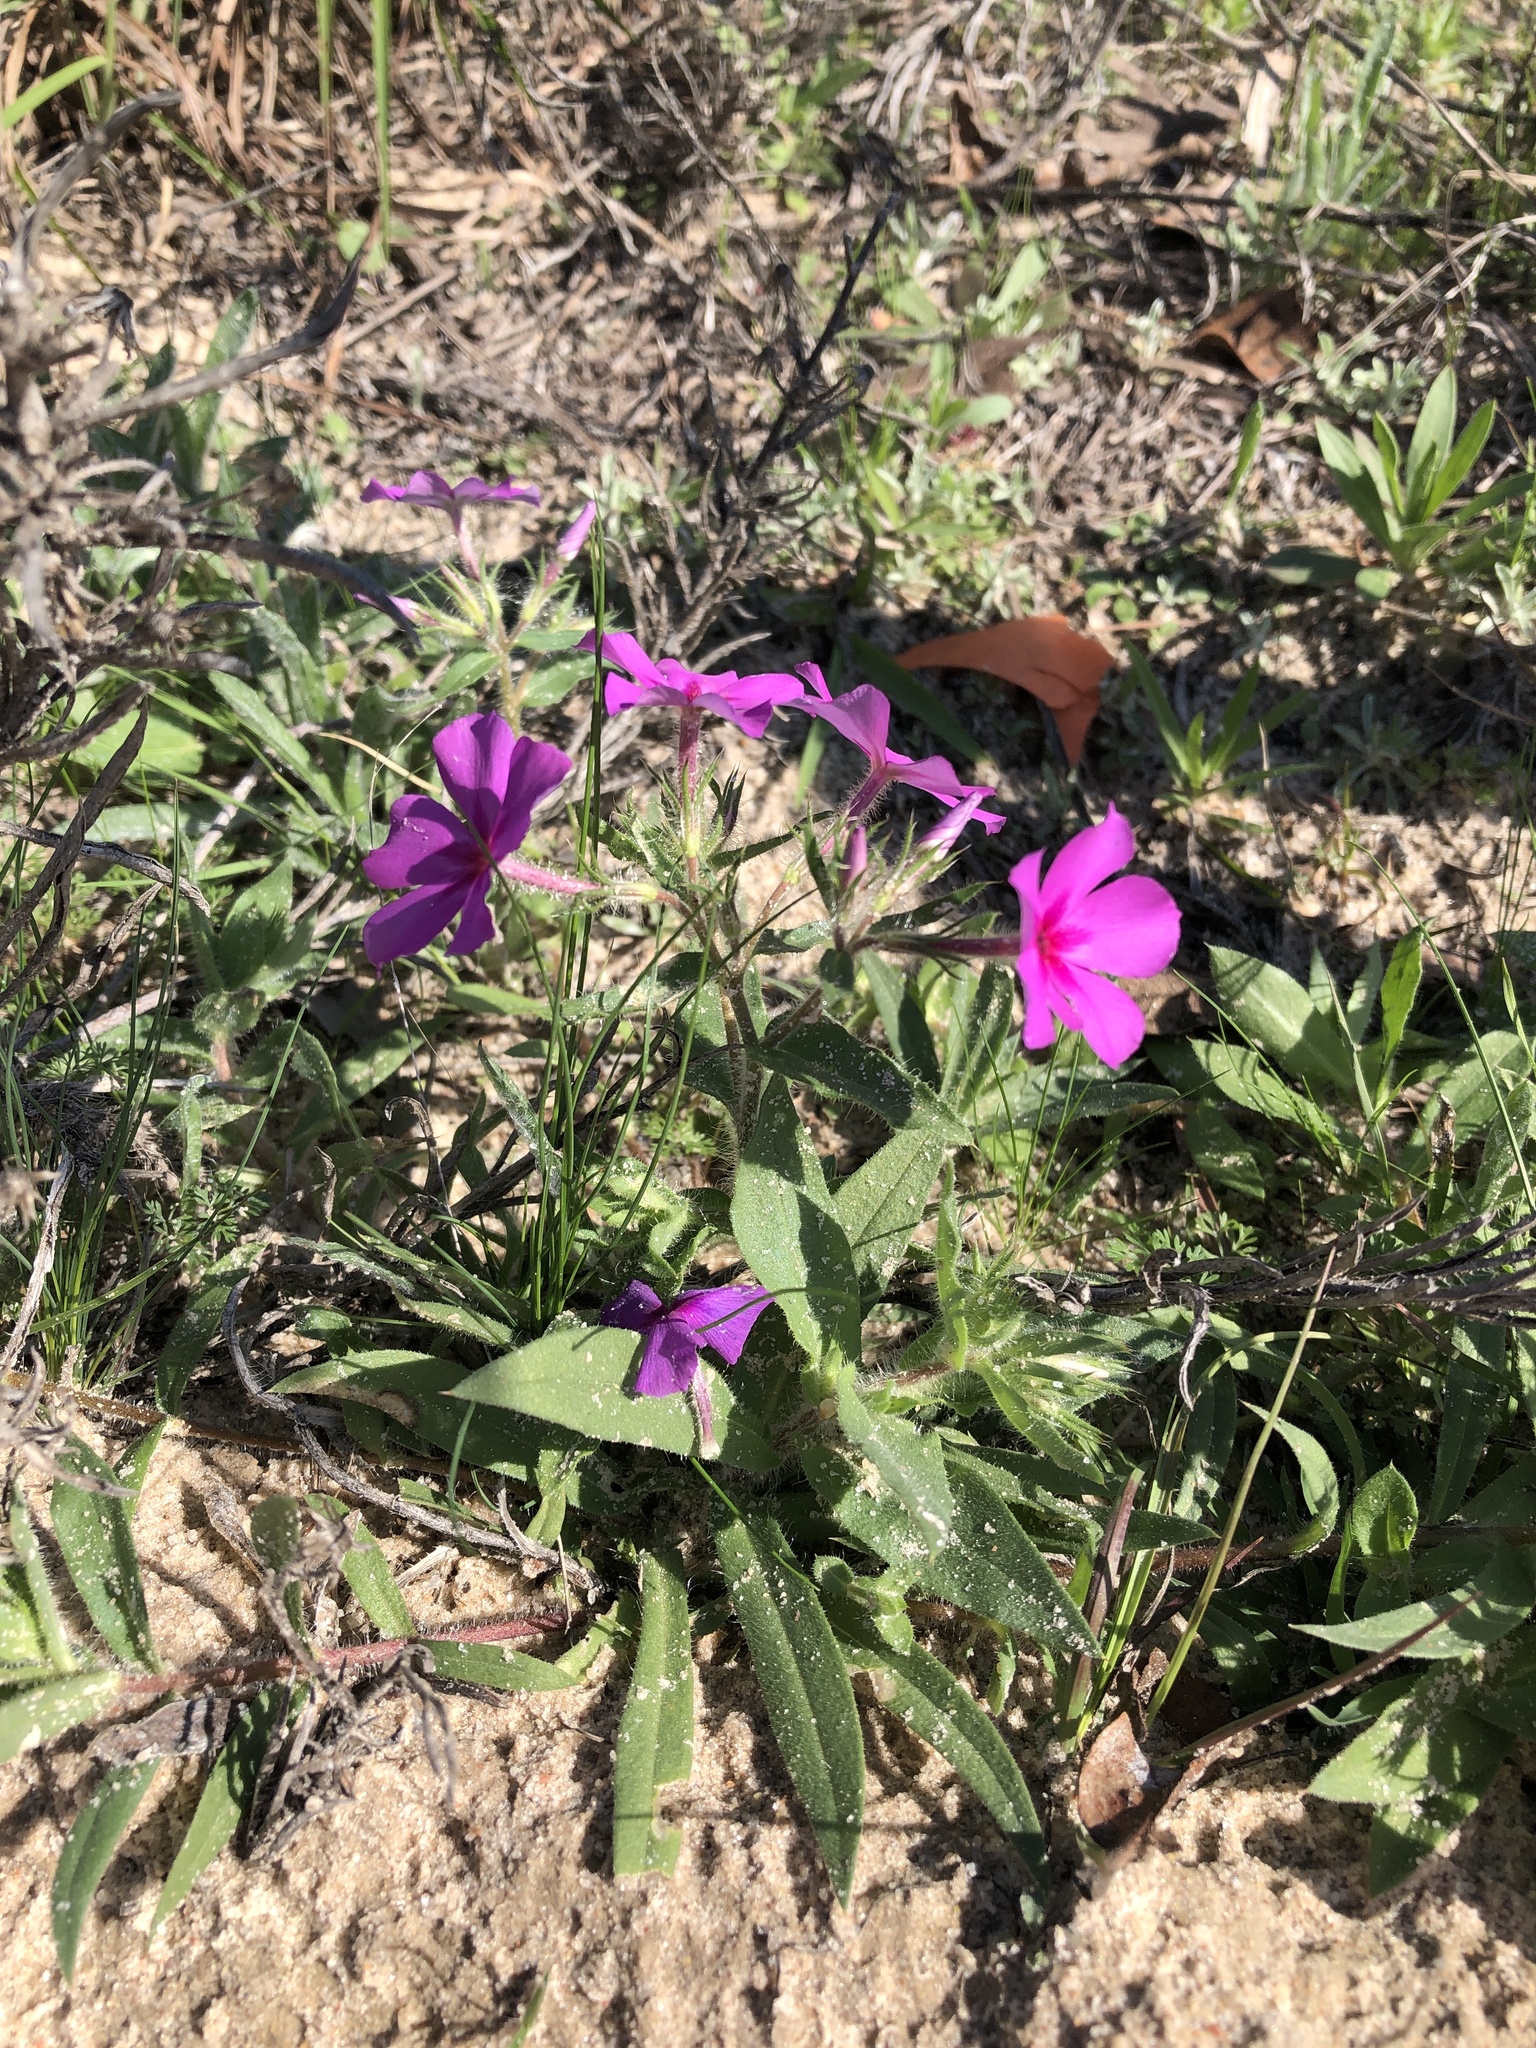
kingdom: Plantae
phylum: Tracheophyta
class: Magnoliopsida
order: Ericales
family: Polemoniaceae
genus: Phlox
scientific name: Phlox drummondii
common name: Drummond's phlox
